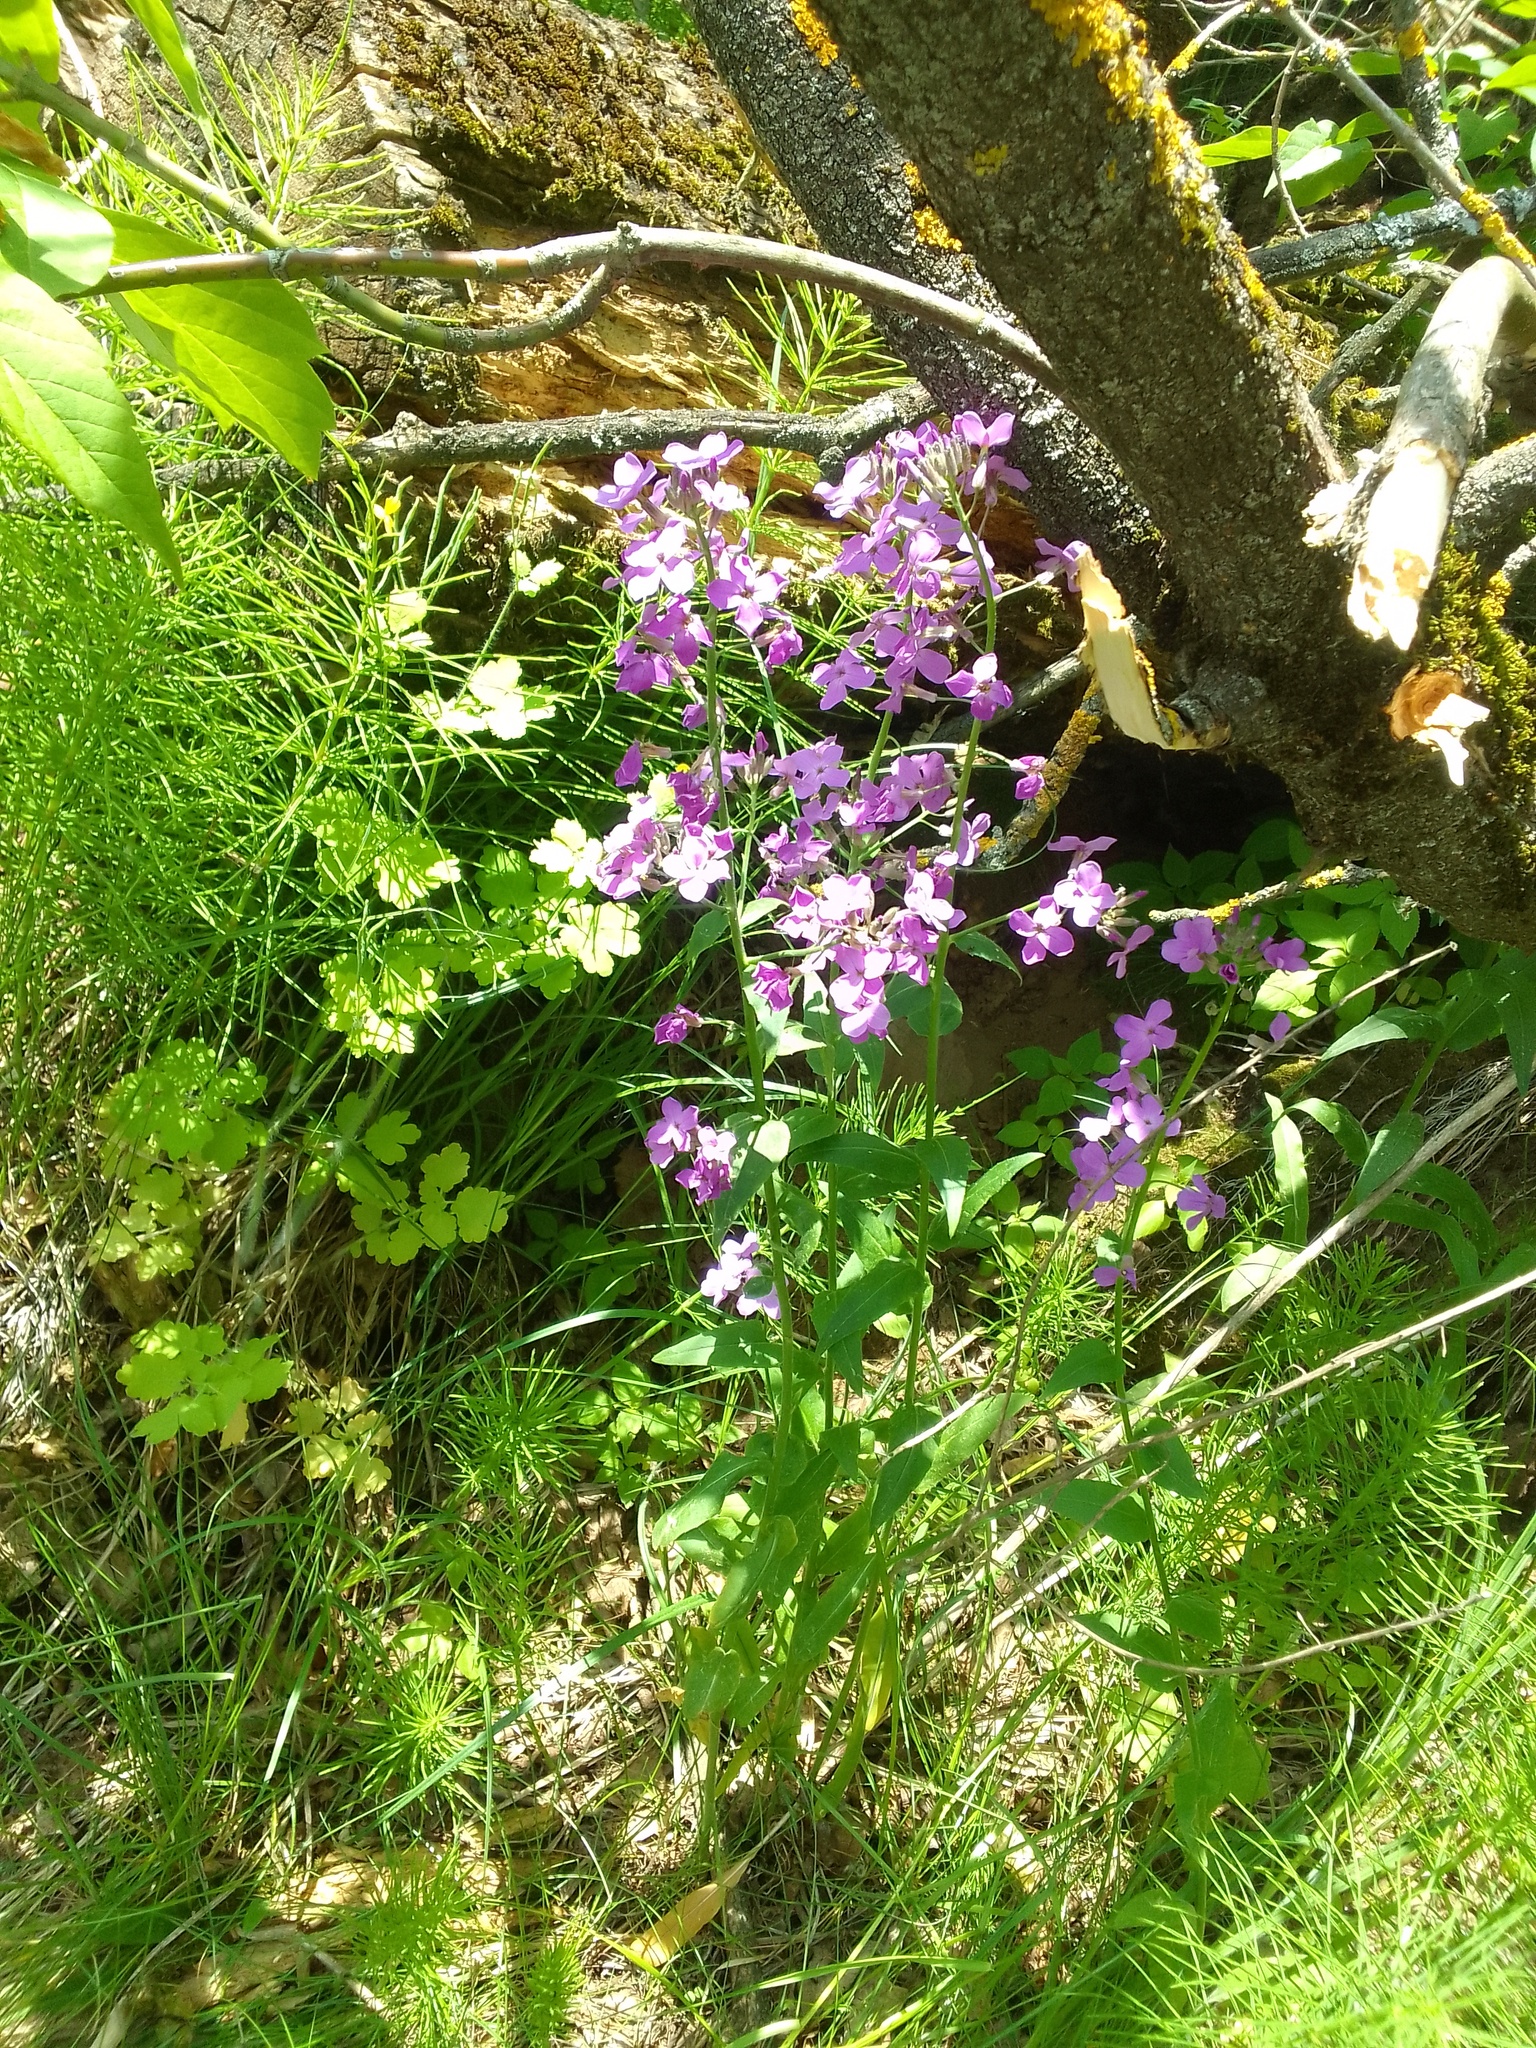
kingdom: Plantae
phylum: Tracheophyta
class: Magnoliopsida
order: Brassicales
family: Brassicaceae
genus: Hesperis
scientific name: Hesperis matronalis
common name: Dame's-violet
